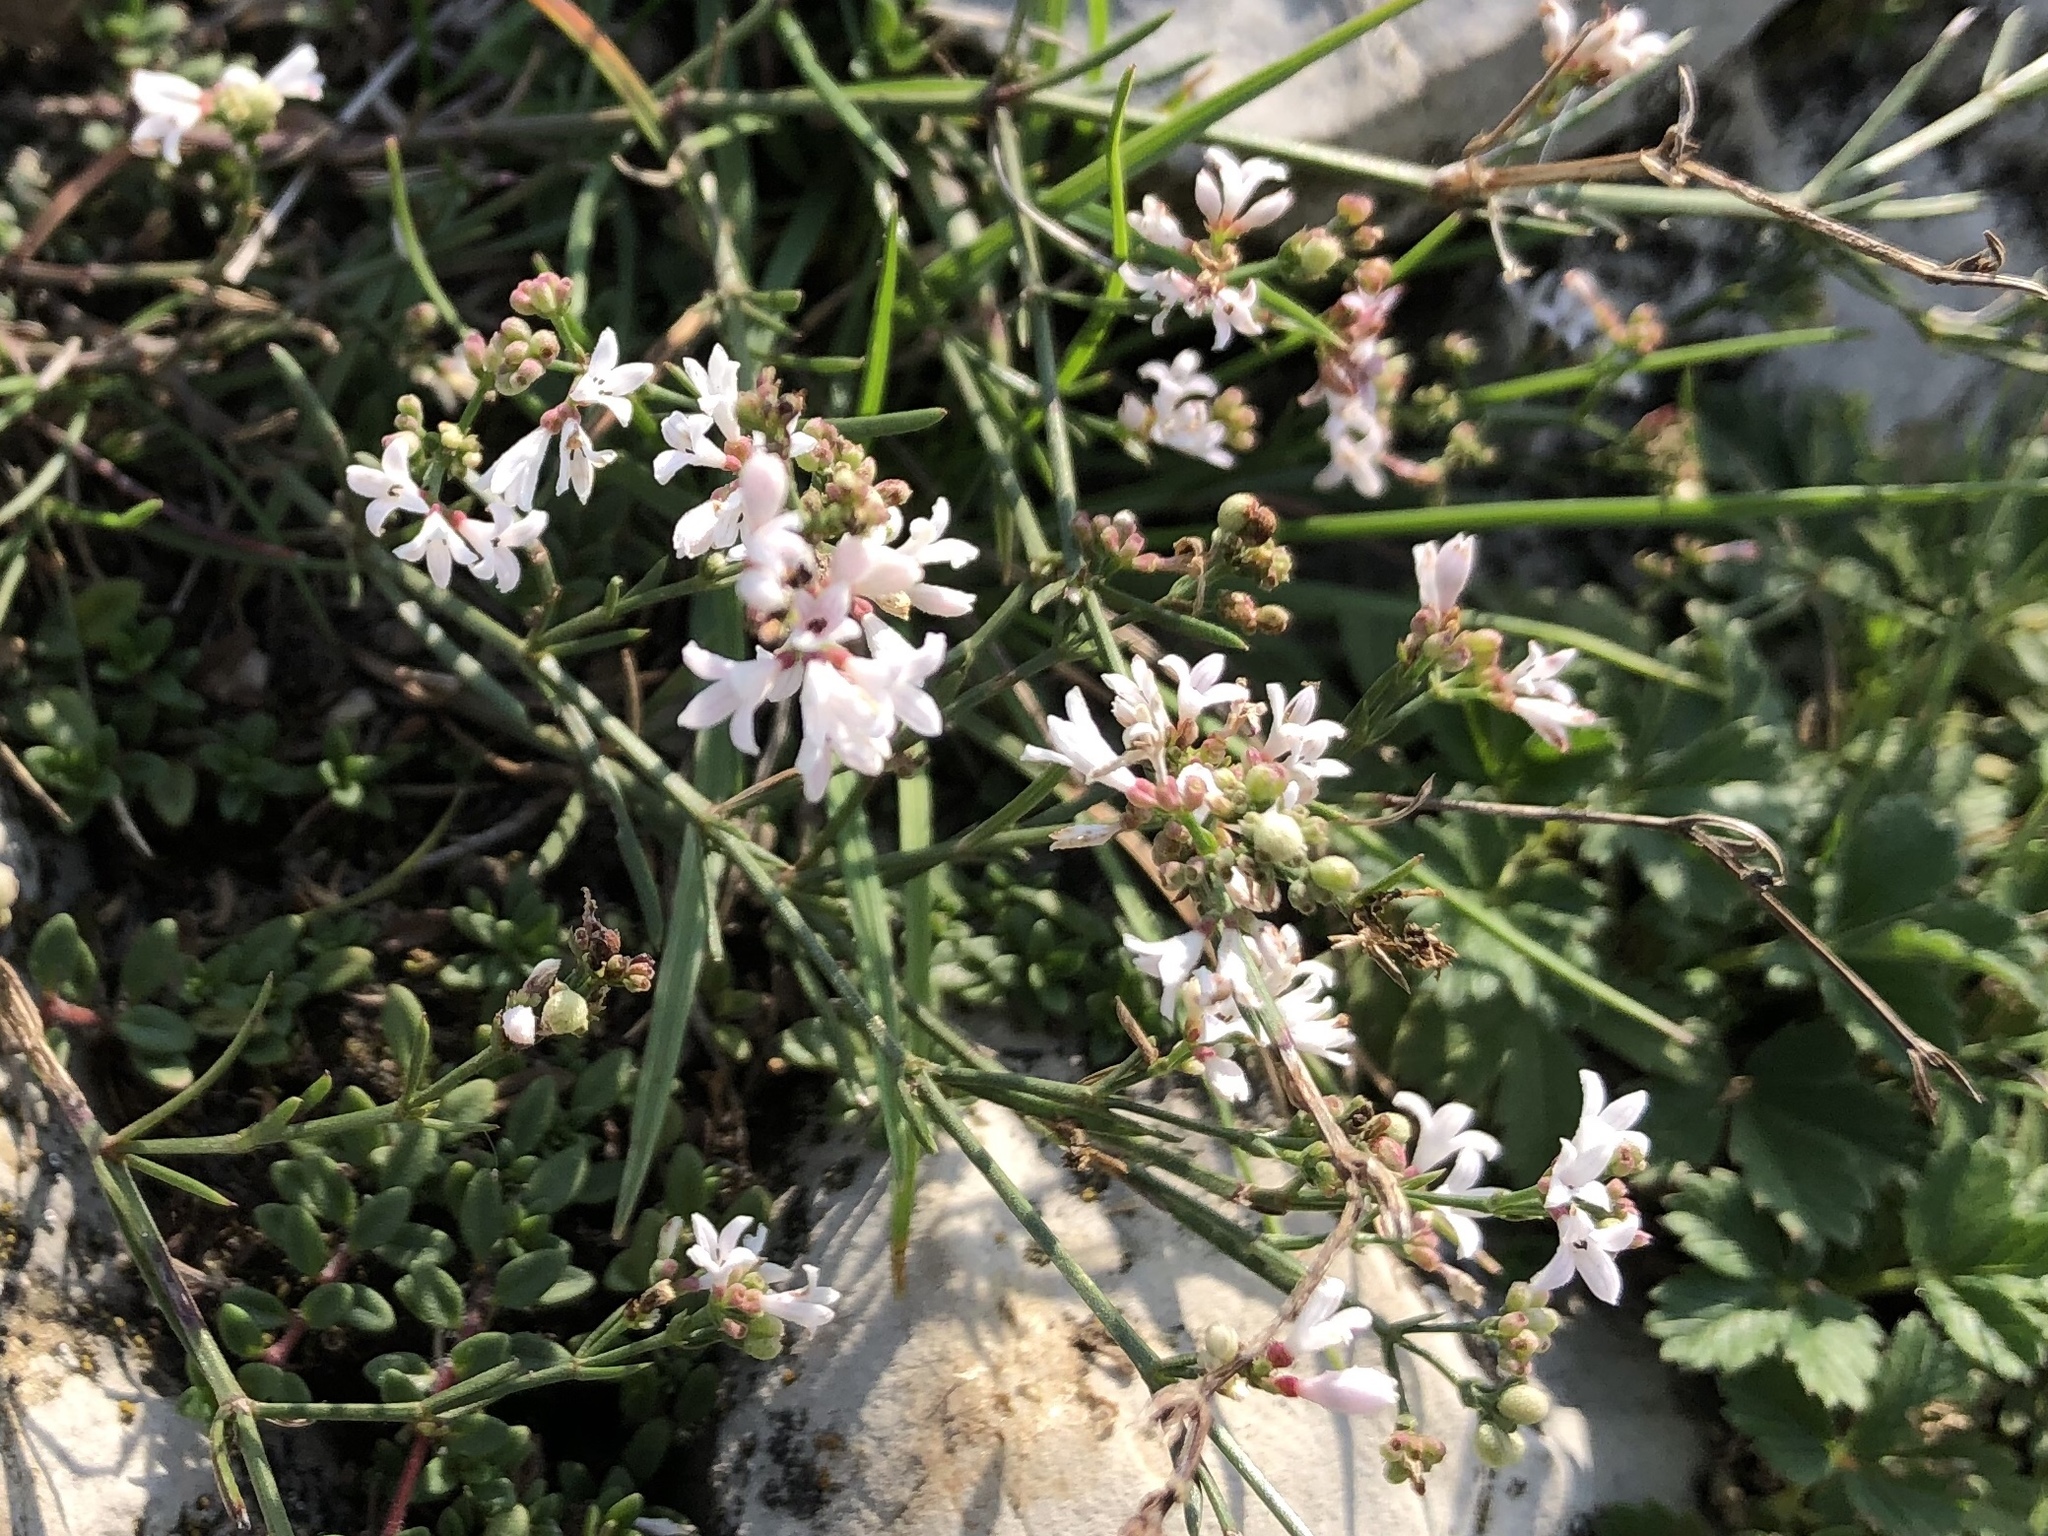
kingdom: Plantae
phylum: Tracheophyta
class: Magnoliopsida
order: Gentianales
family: Rubiaceae
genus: Cynanchica
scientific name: Cynanchica pyrenaica
